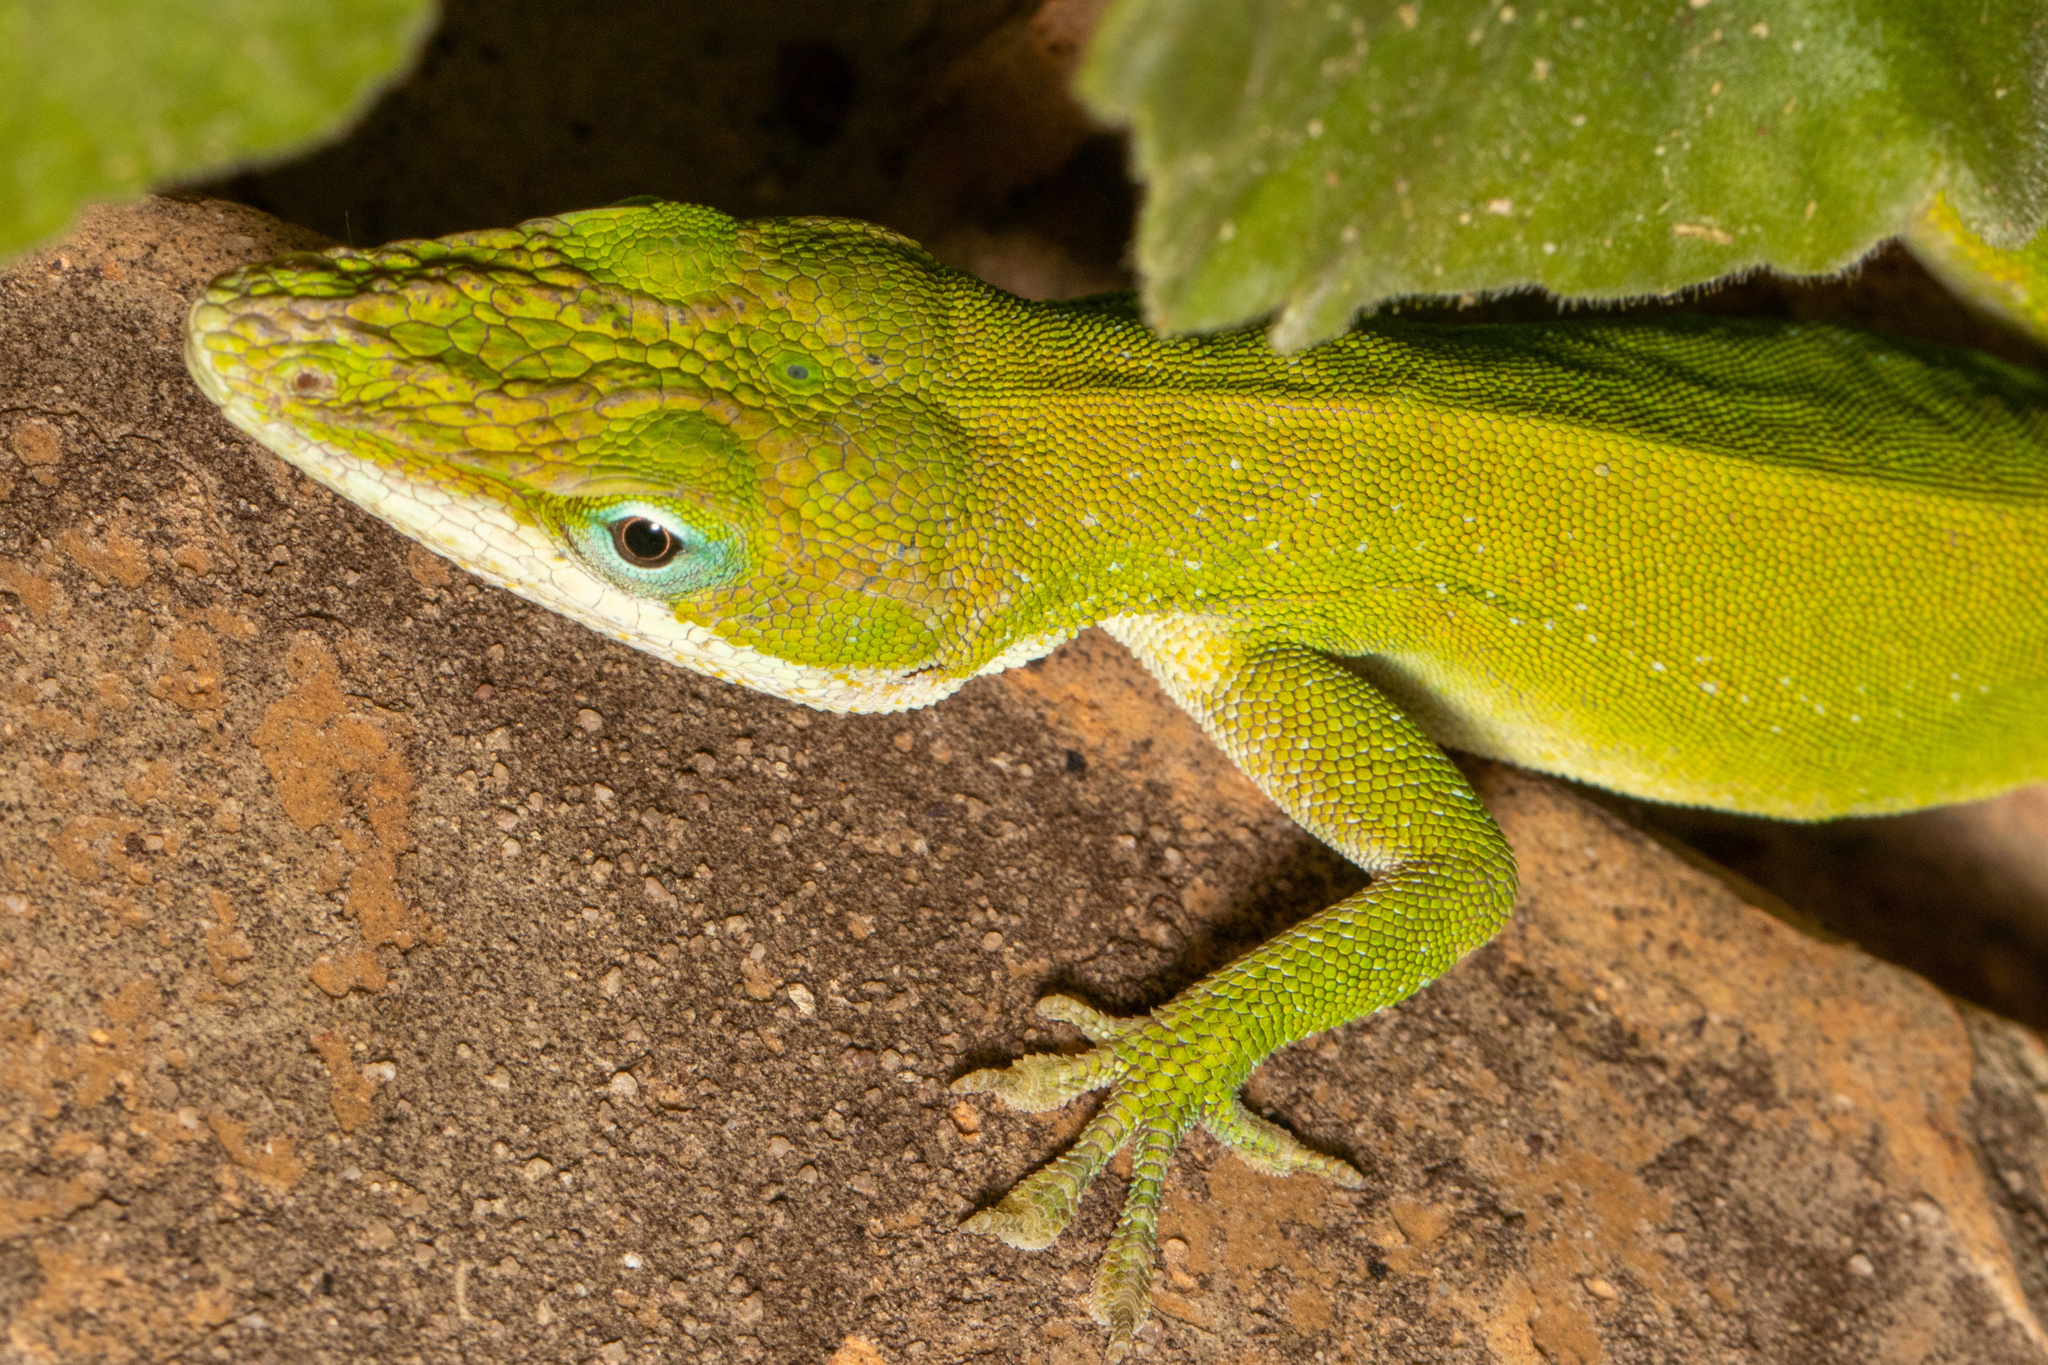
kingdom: Animalia
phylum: Chordata
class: Squamata
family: Dactyloidae
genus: Anolis
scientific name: Anolis carolinensis
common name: Green anole
